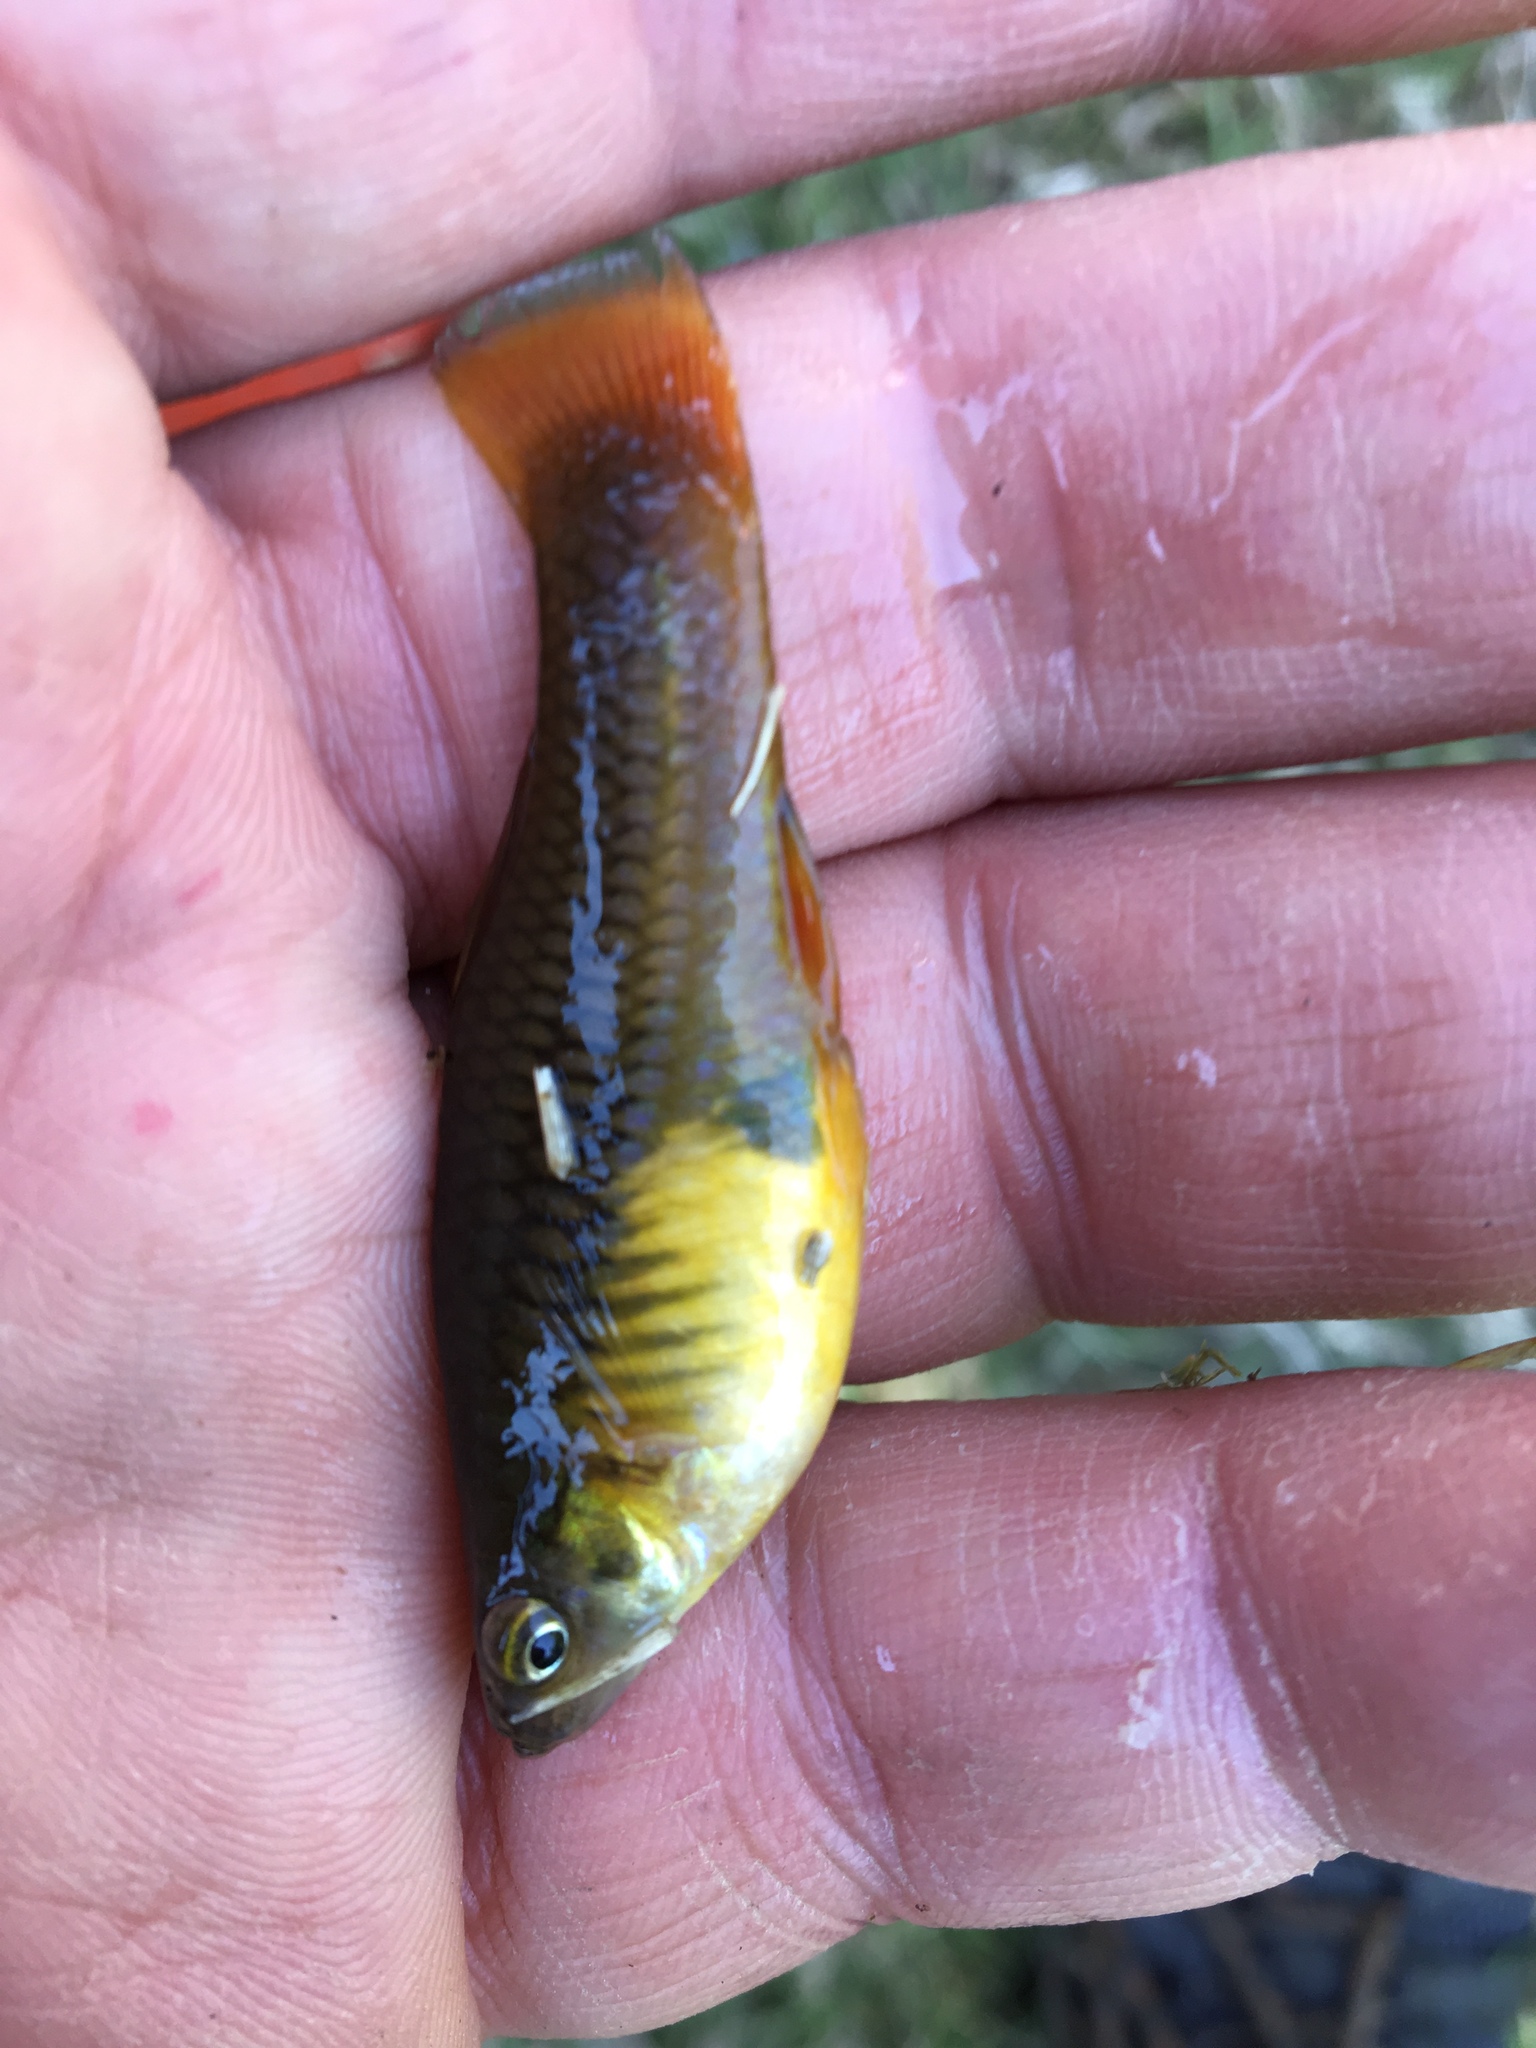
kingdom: Animalia
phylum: Chordata
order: Cyprinodontiformes
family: Poeciliidae
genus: Xiphophorus
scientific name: Xiphophorus variatus
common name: Variable platyfish
